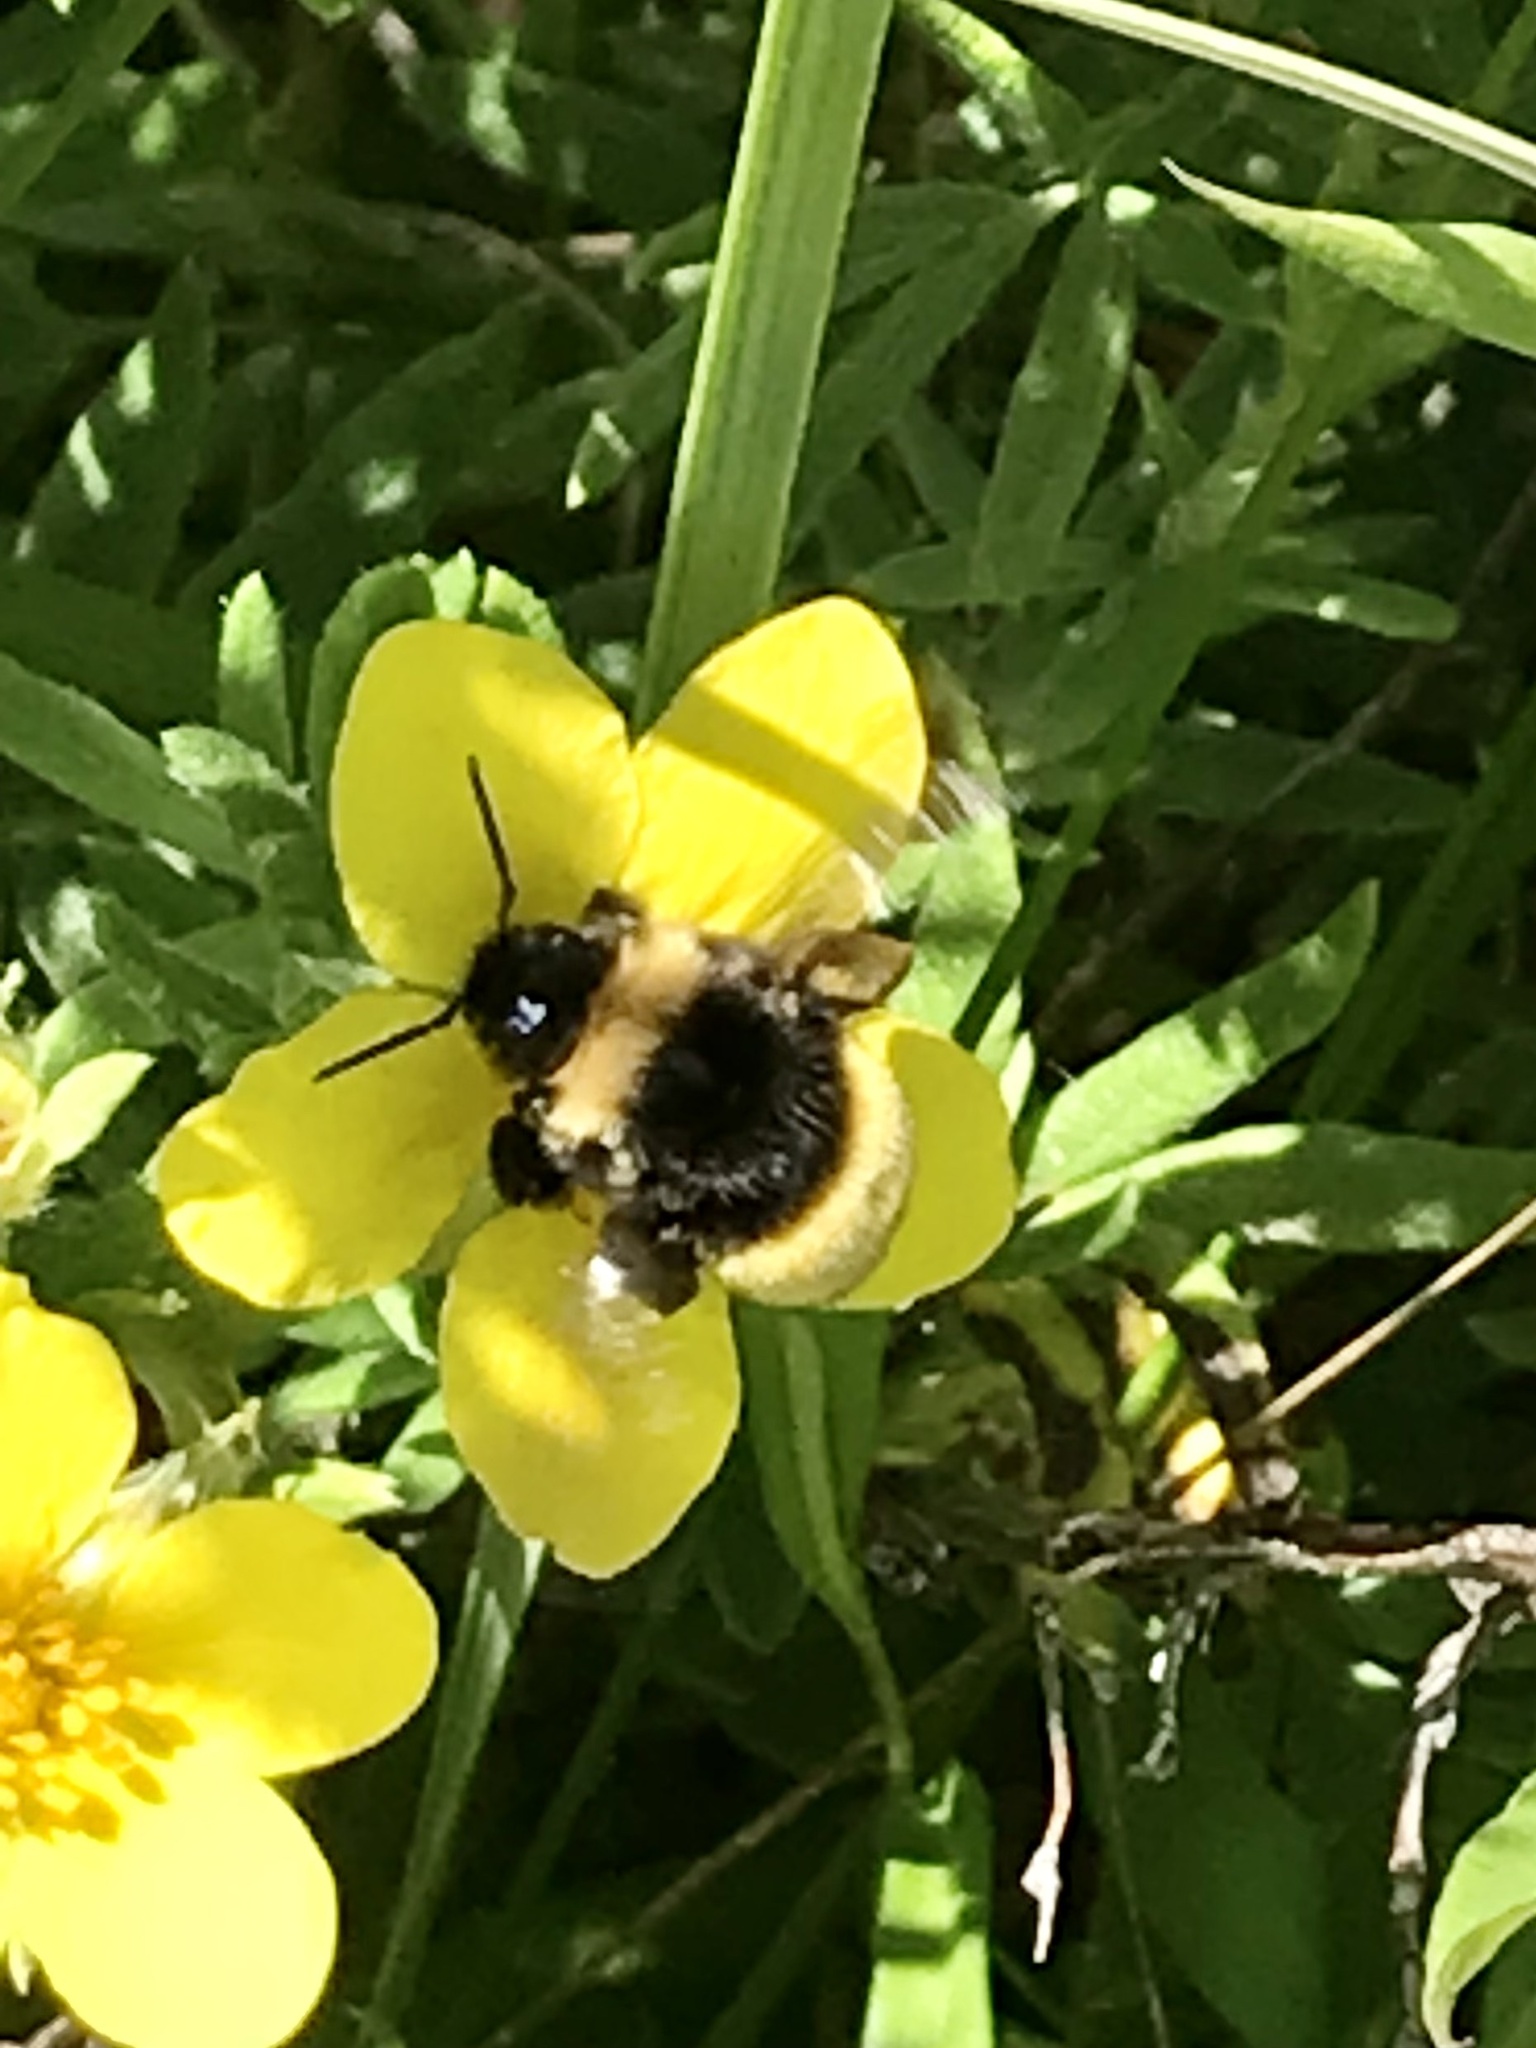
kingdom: Animalia
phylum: Arthropoda
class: Insecta
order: Hymenoptera
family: Apidae
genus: Bombus
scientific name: Bombus terricola
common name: Yellow-banded bumble bee
